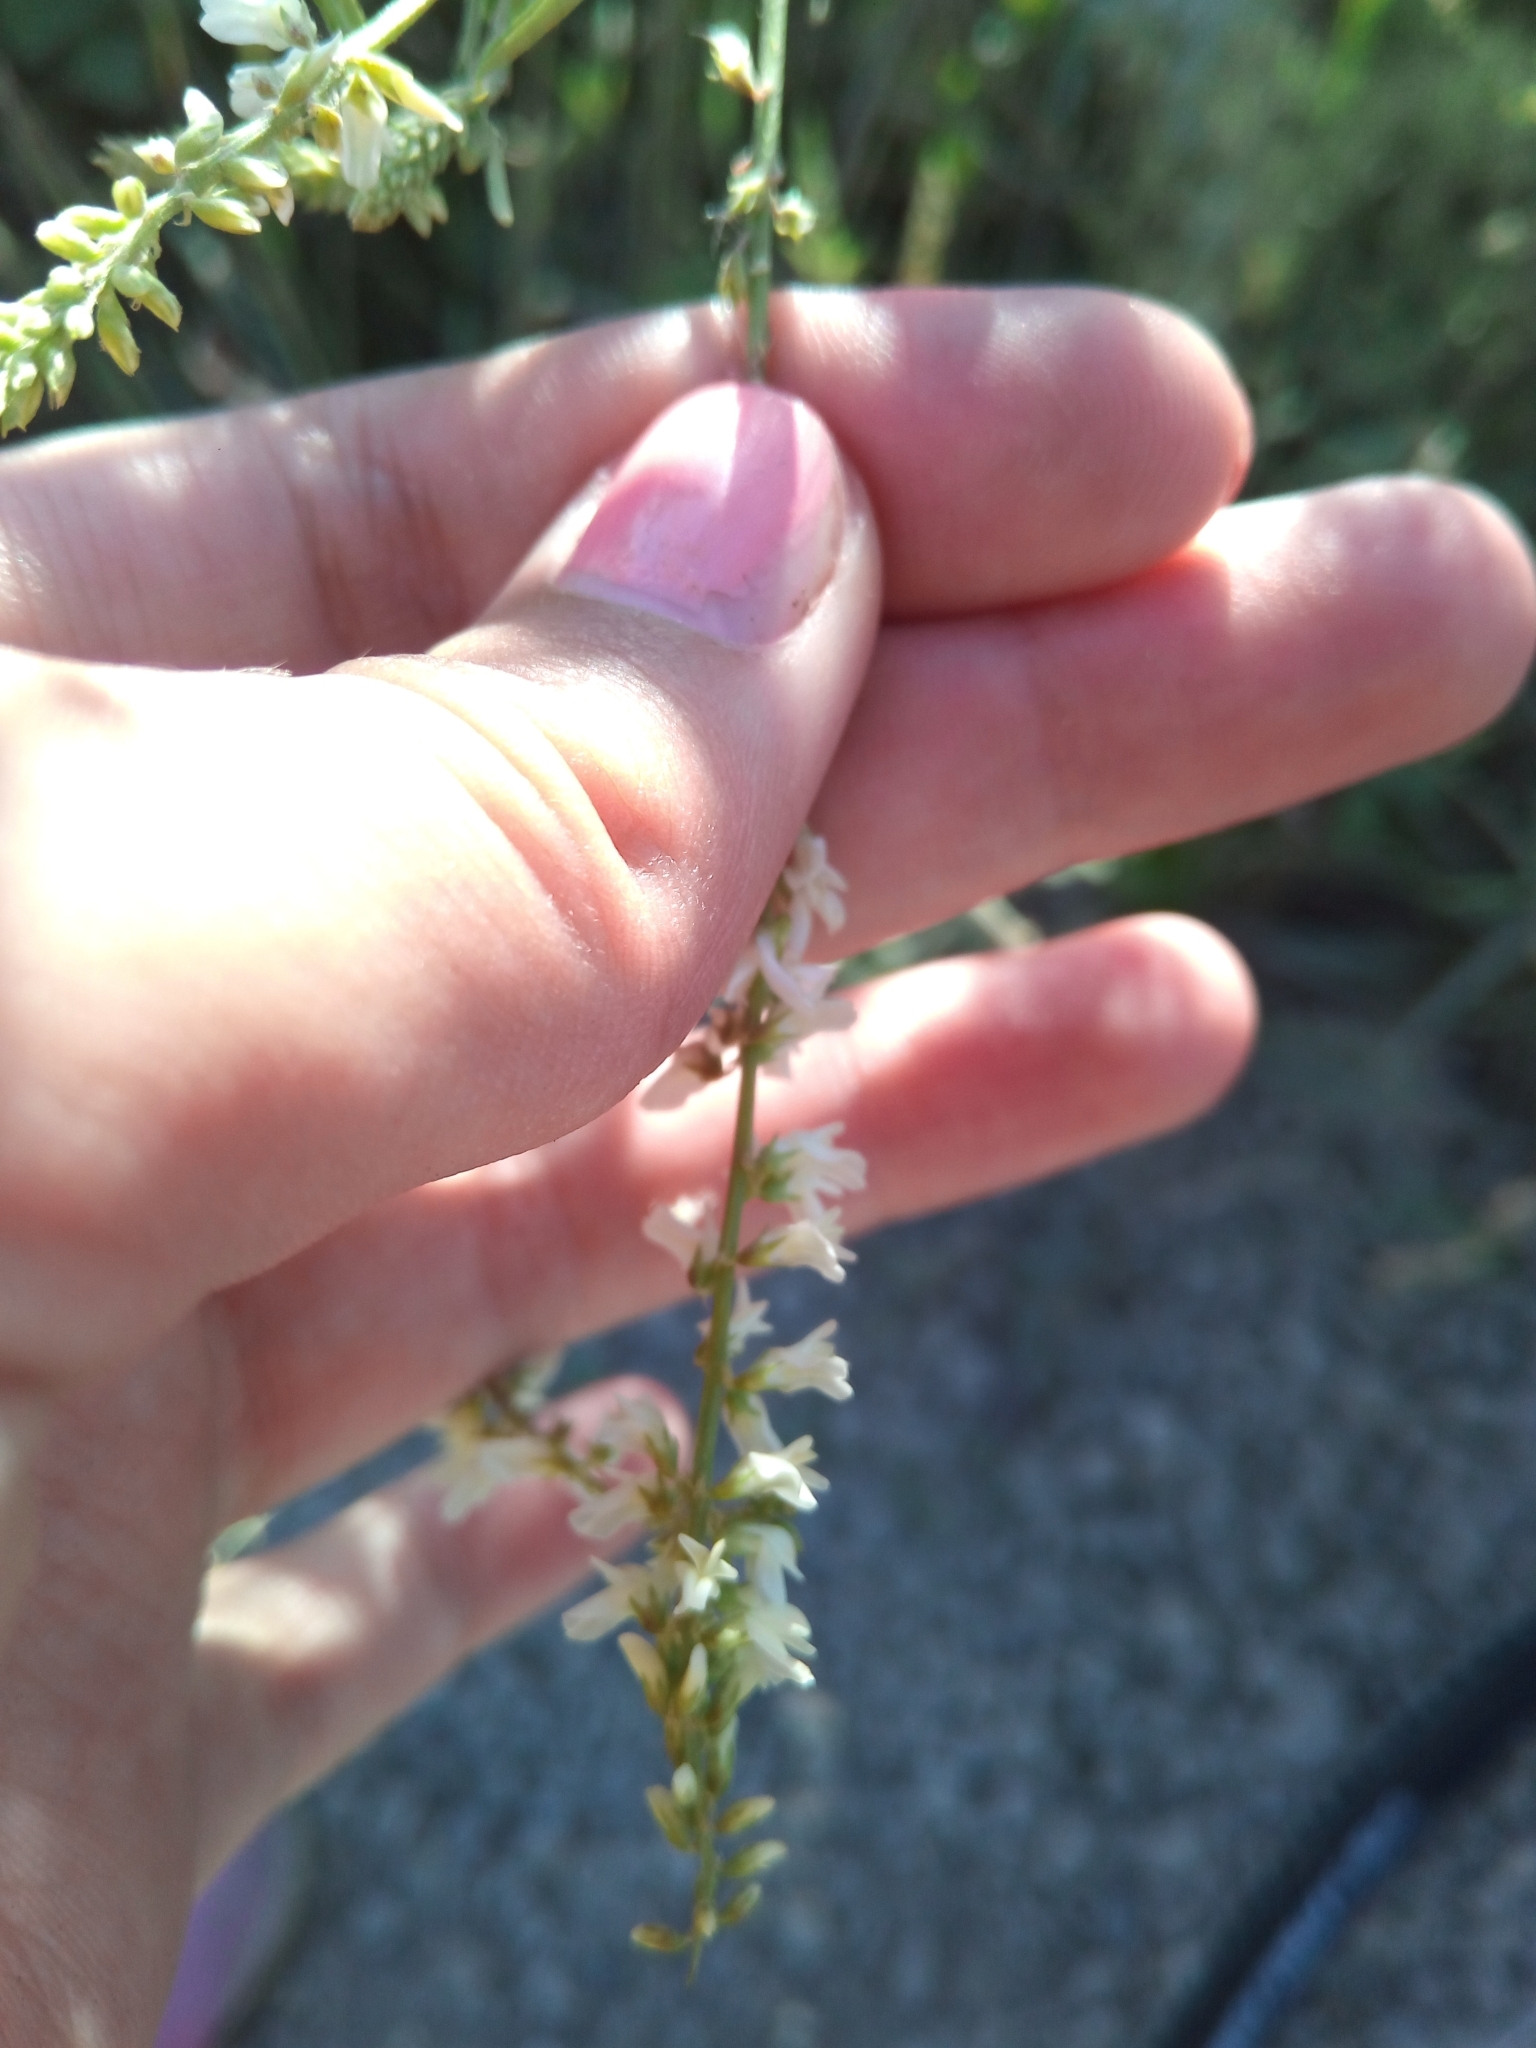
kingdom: Plantae
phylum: Tracheophyta
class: Magnoliopsida
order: Fabales
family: Fabaceae
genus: Melilotus
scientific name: Melilotus albus
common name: White melilot
